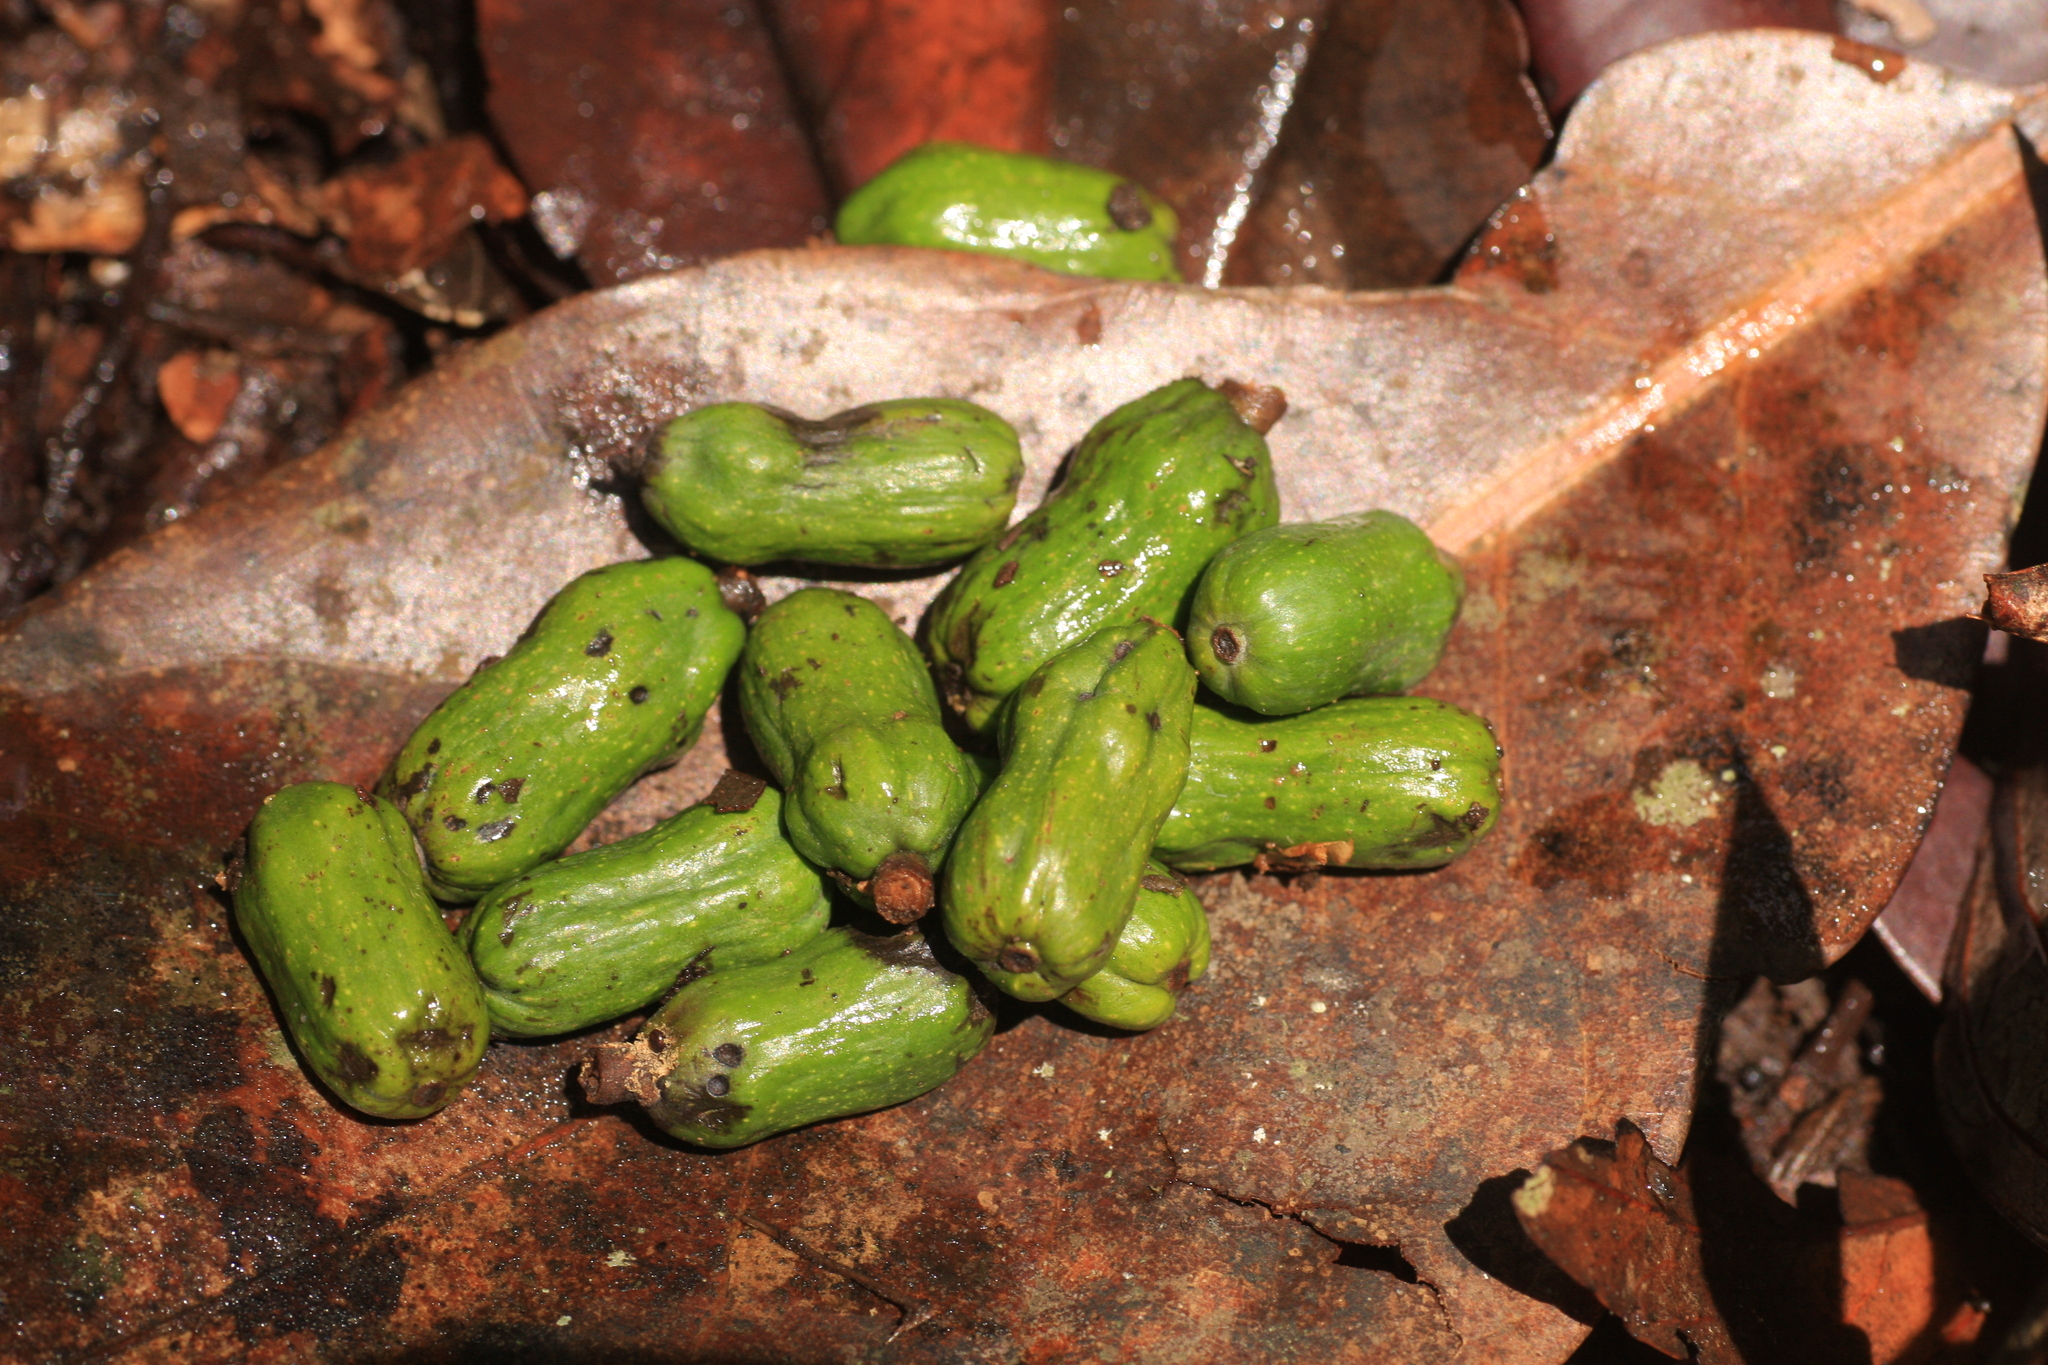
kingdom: Plantae
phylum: Tracheophyta
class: Magnoliopsida
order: Laurales
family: Lauraceae
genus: Cryptocarya
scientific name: Cryptocarya wightiana
